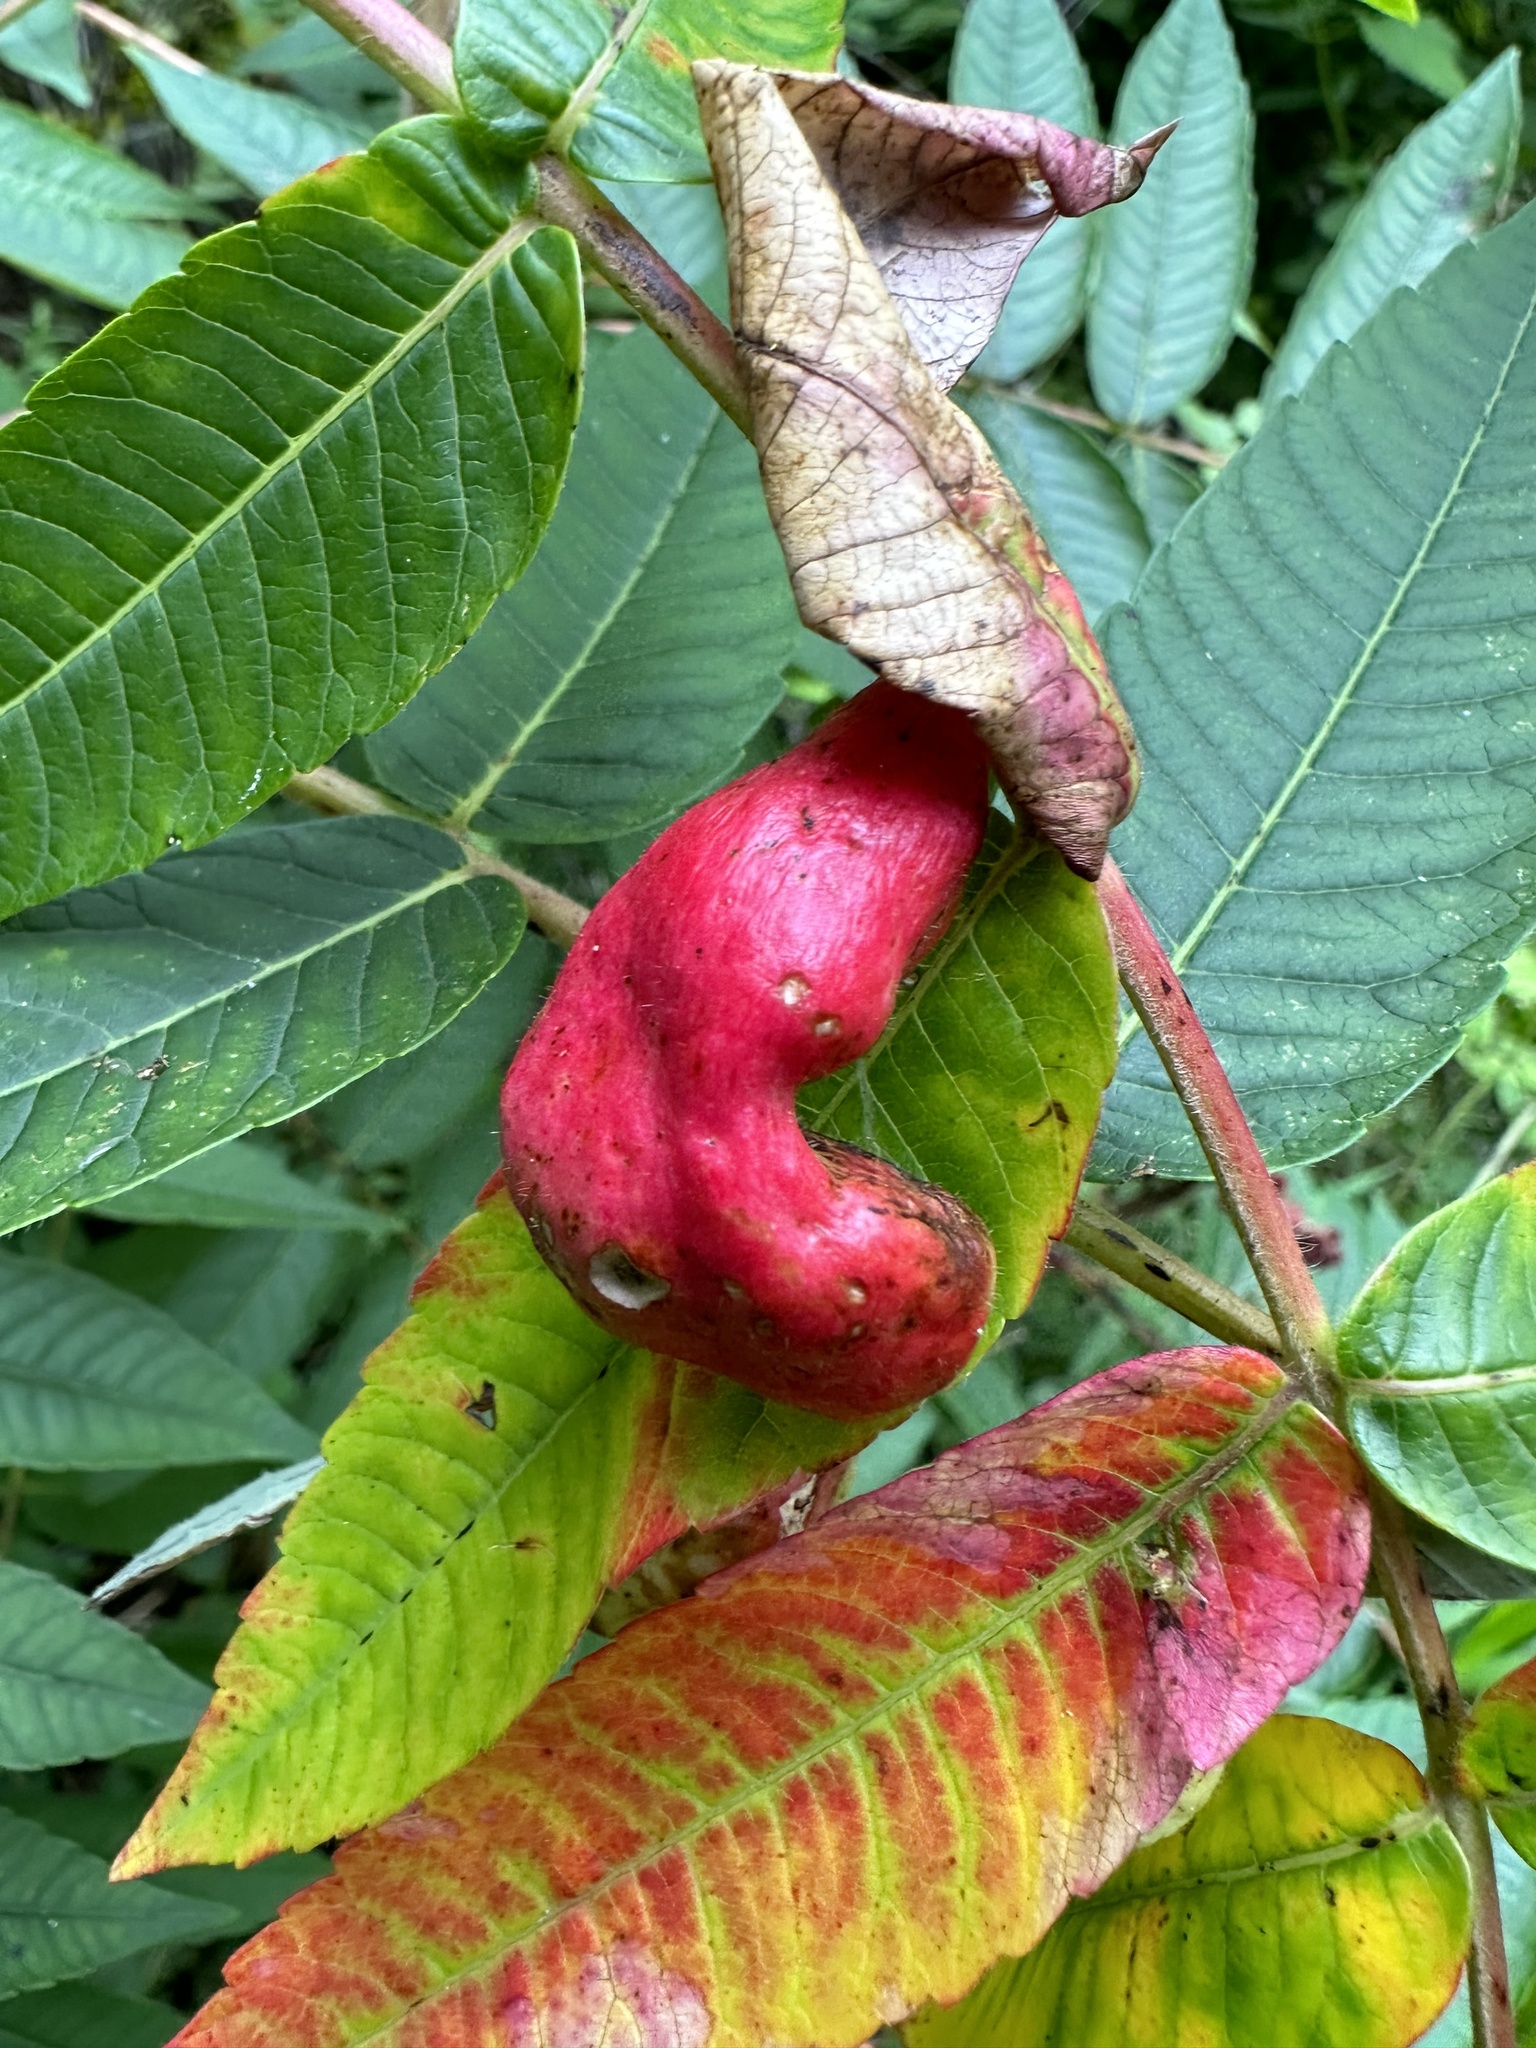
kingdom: Animalia
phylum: Arthropoda
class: Insecta
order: Hemiptera
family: Aphididae
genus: Melaphis
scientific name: Melaphis rhois
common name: Sumac gall aphid
